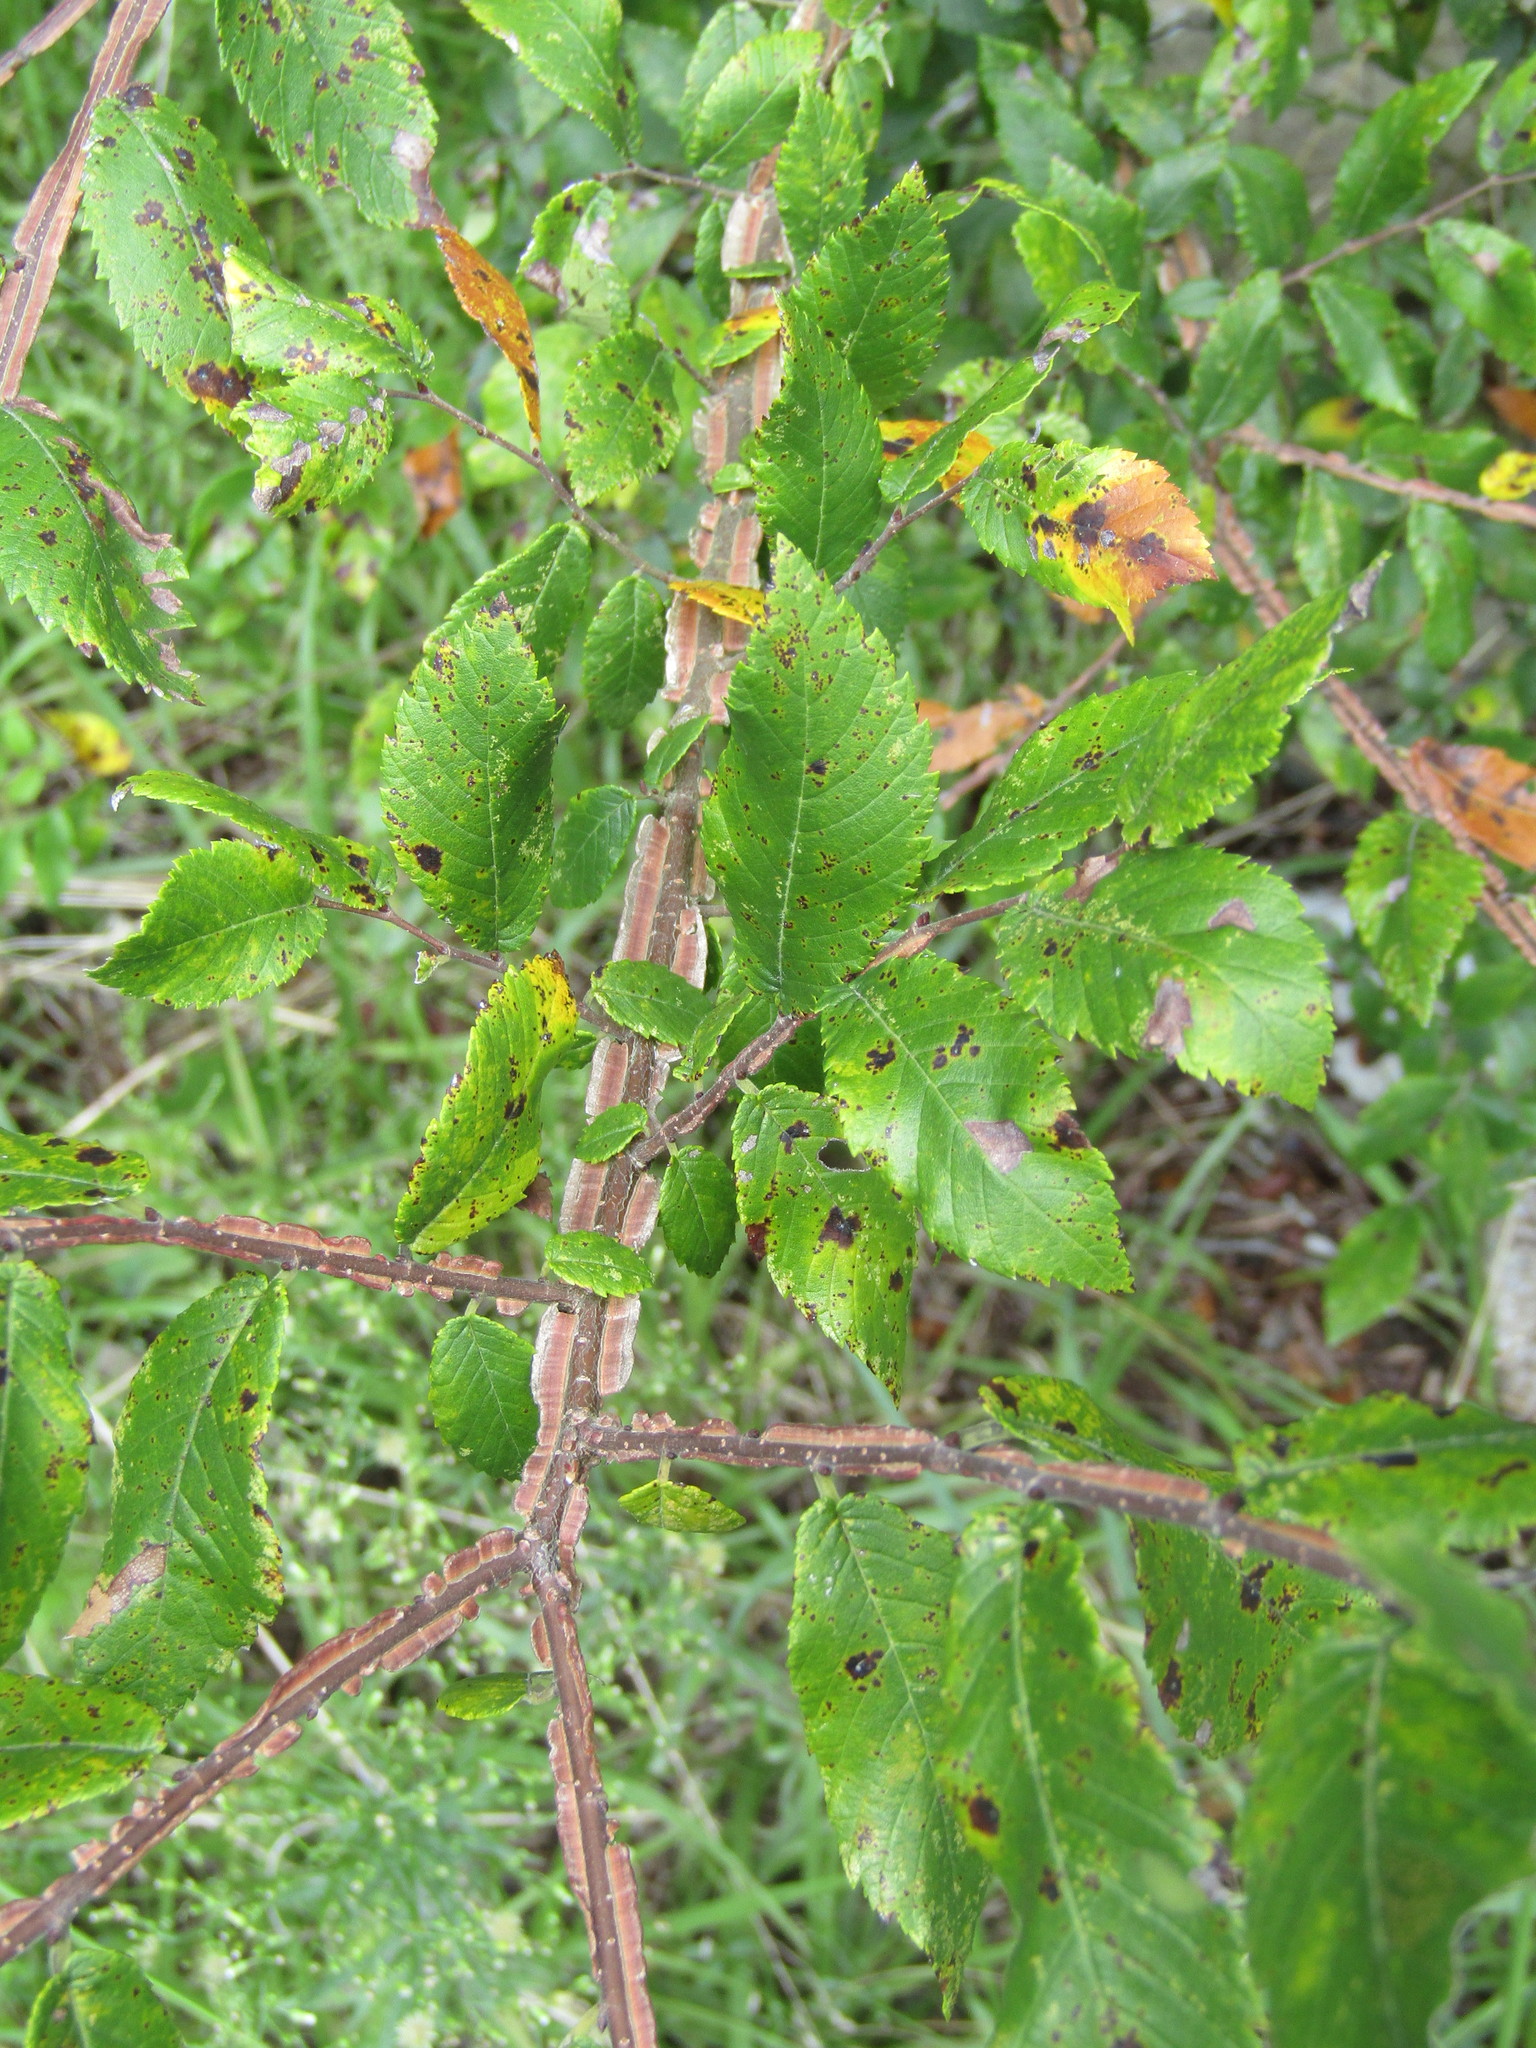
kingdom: Plantae
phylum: Tracheophyta
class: Magnoliopsida
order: Rosales
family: Ulmaceae
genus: Ulmus
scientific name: Ulmus alata
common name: Winged elm
